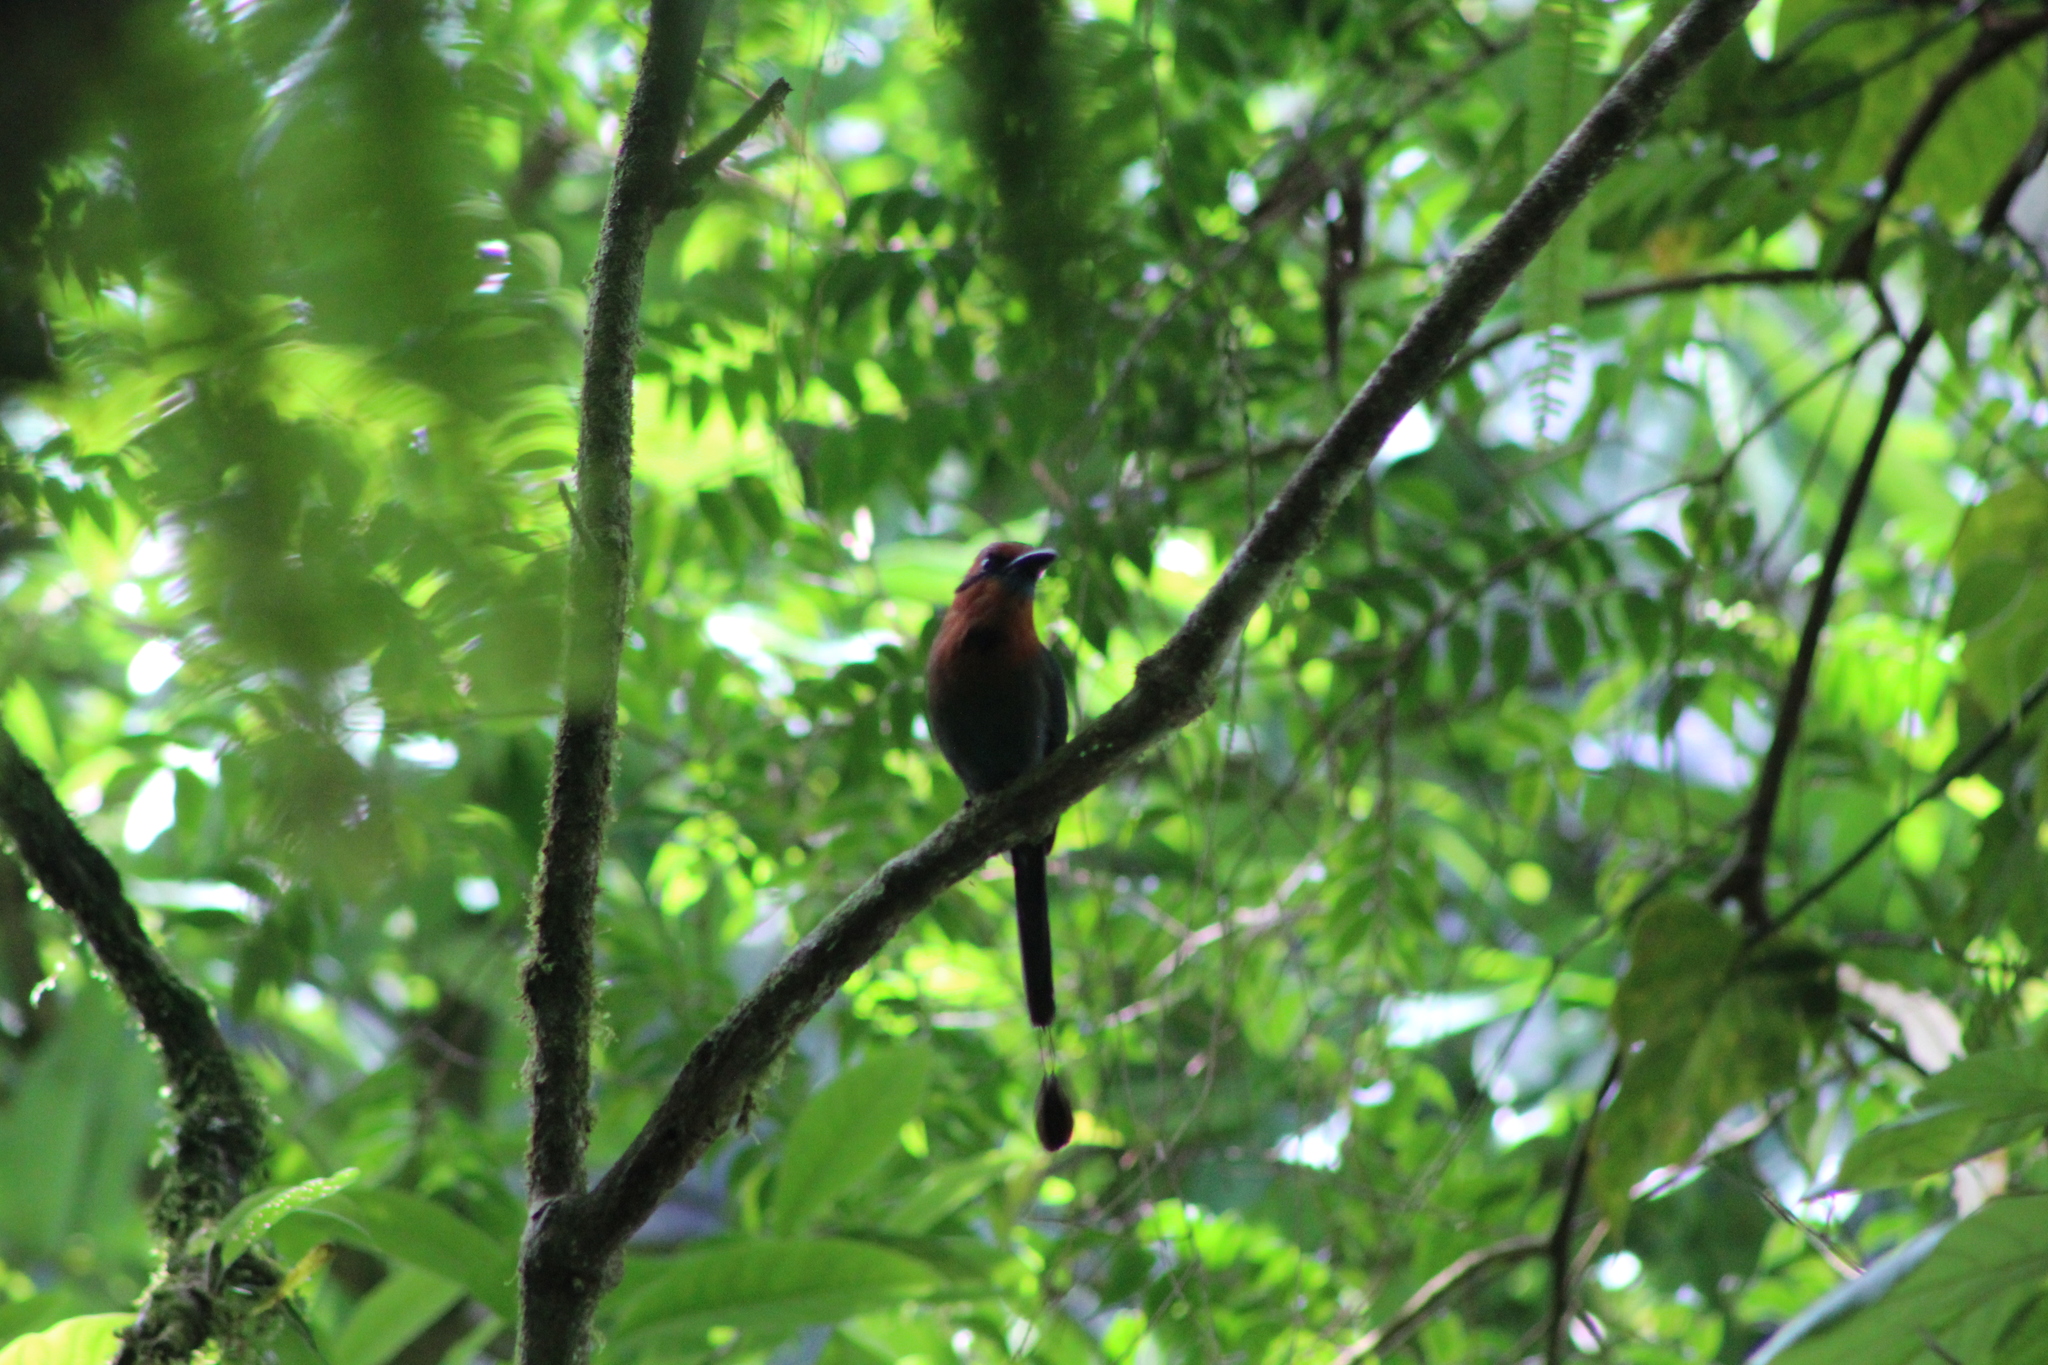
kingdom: Animalia
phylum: Chordata
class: Aves
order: Coraciiformes
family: Momotidae
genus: Electron
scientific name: Electron platyrhynchum
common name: Broad-billed motmot
